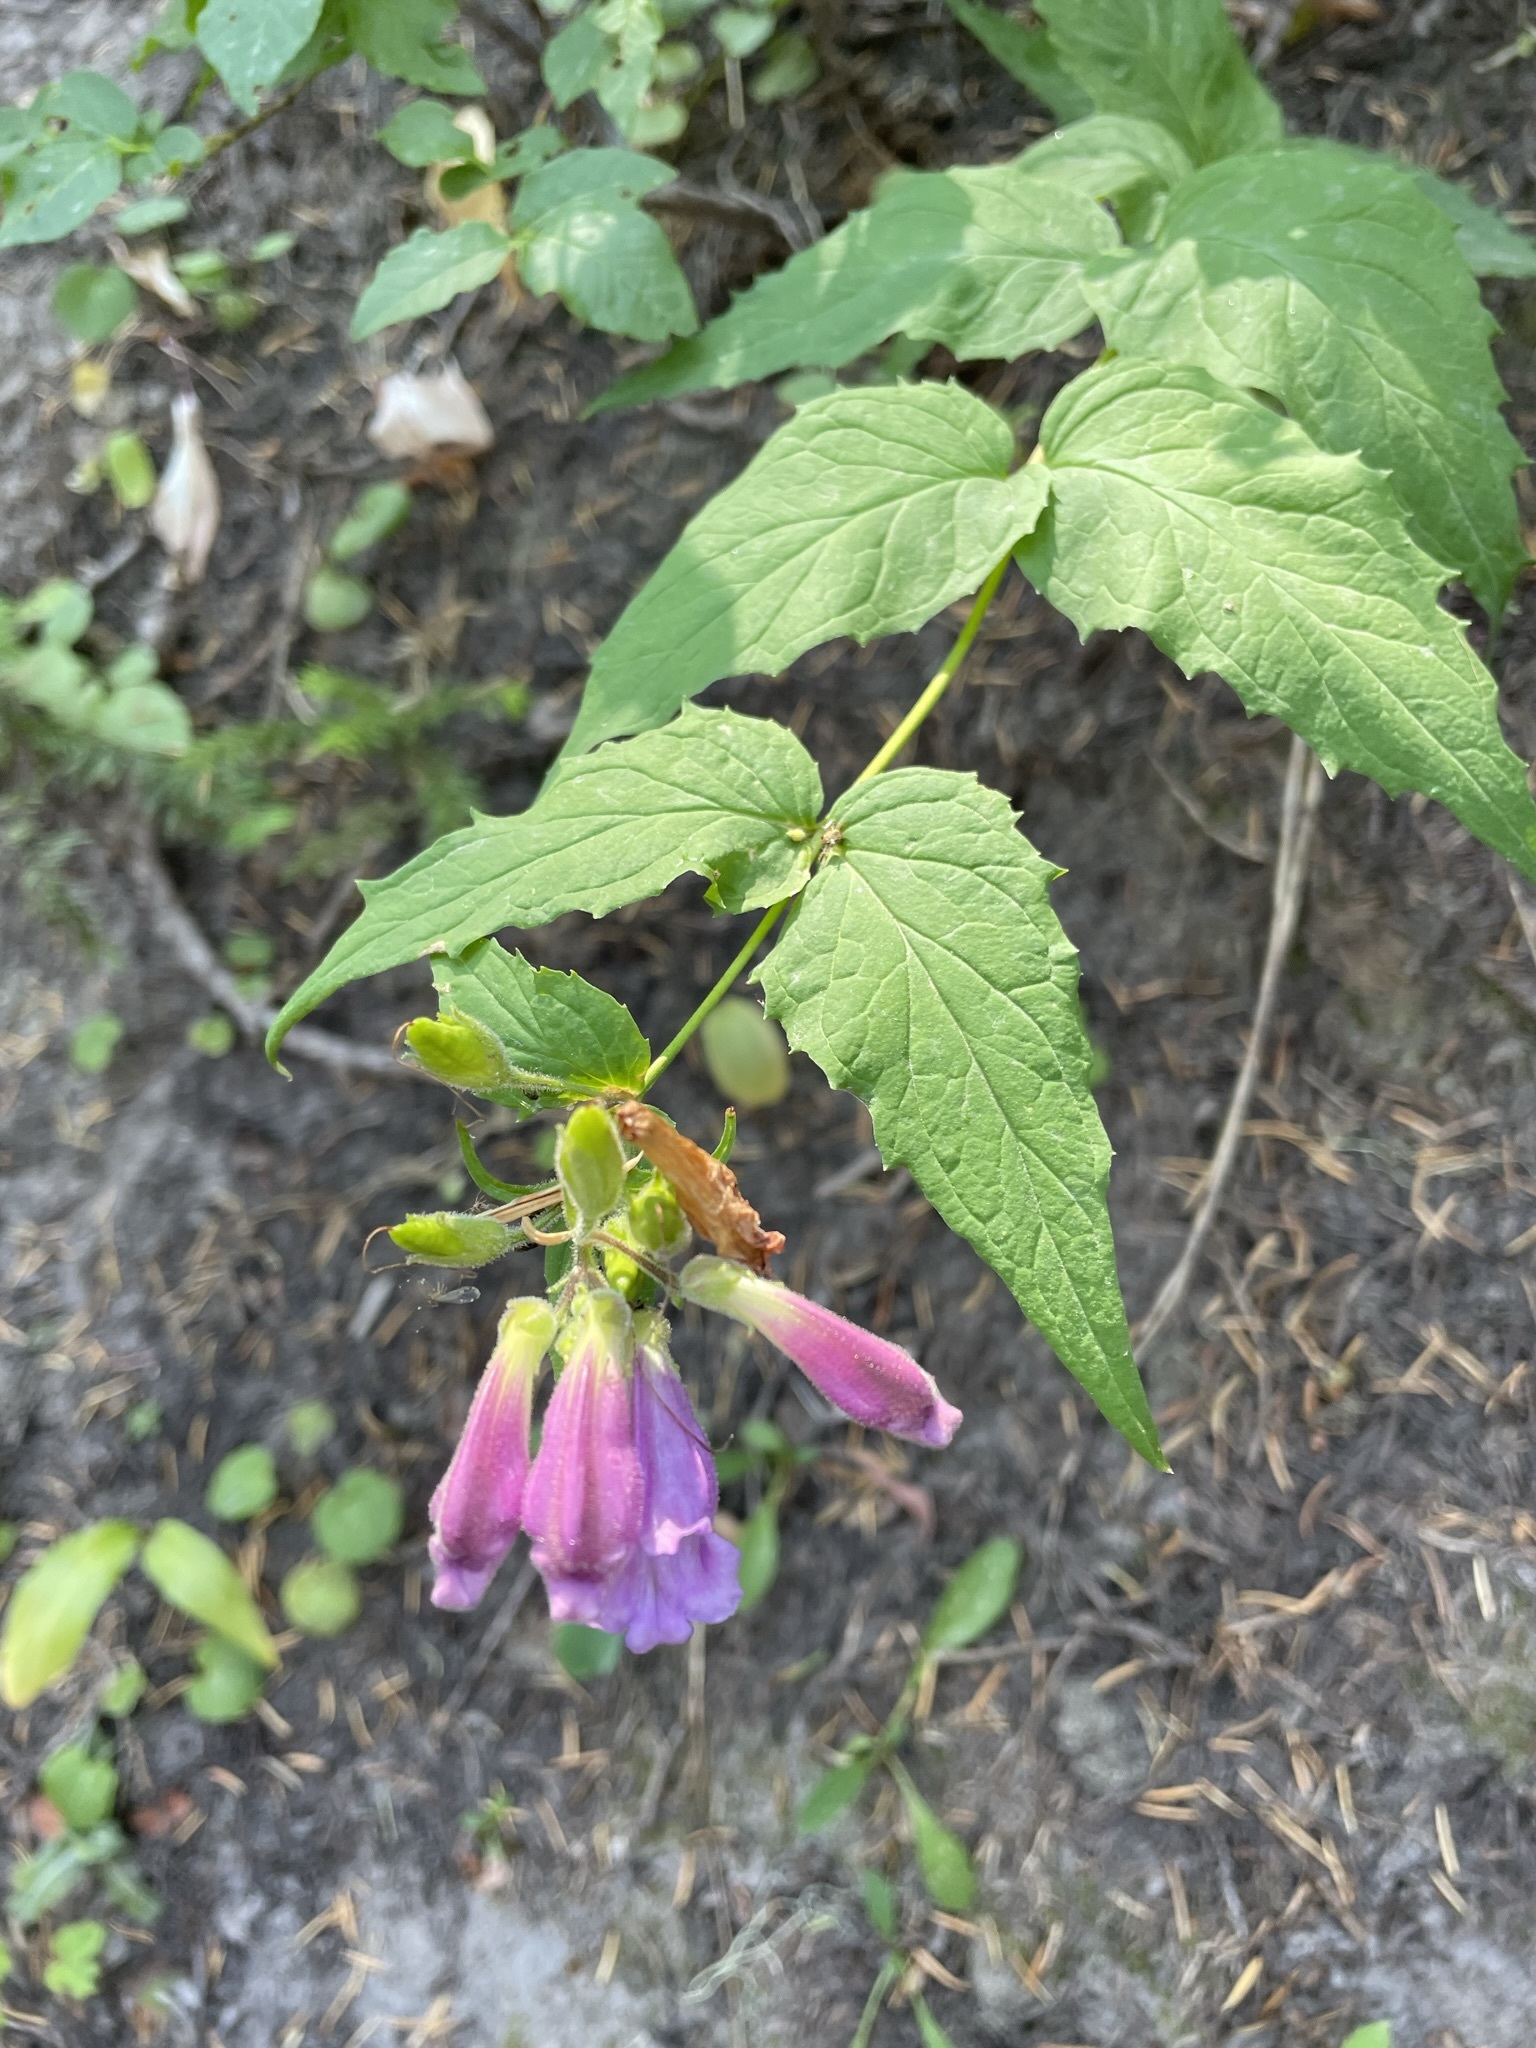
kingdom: Plantae
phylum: Tracheophyta
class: Magnoliopsida
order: Lamiales
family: Plantaginaceae
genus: Nothochelone
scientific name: Nothochelone nemorosa
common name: Woodland beardtongue
